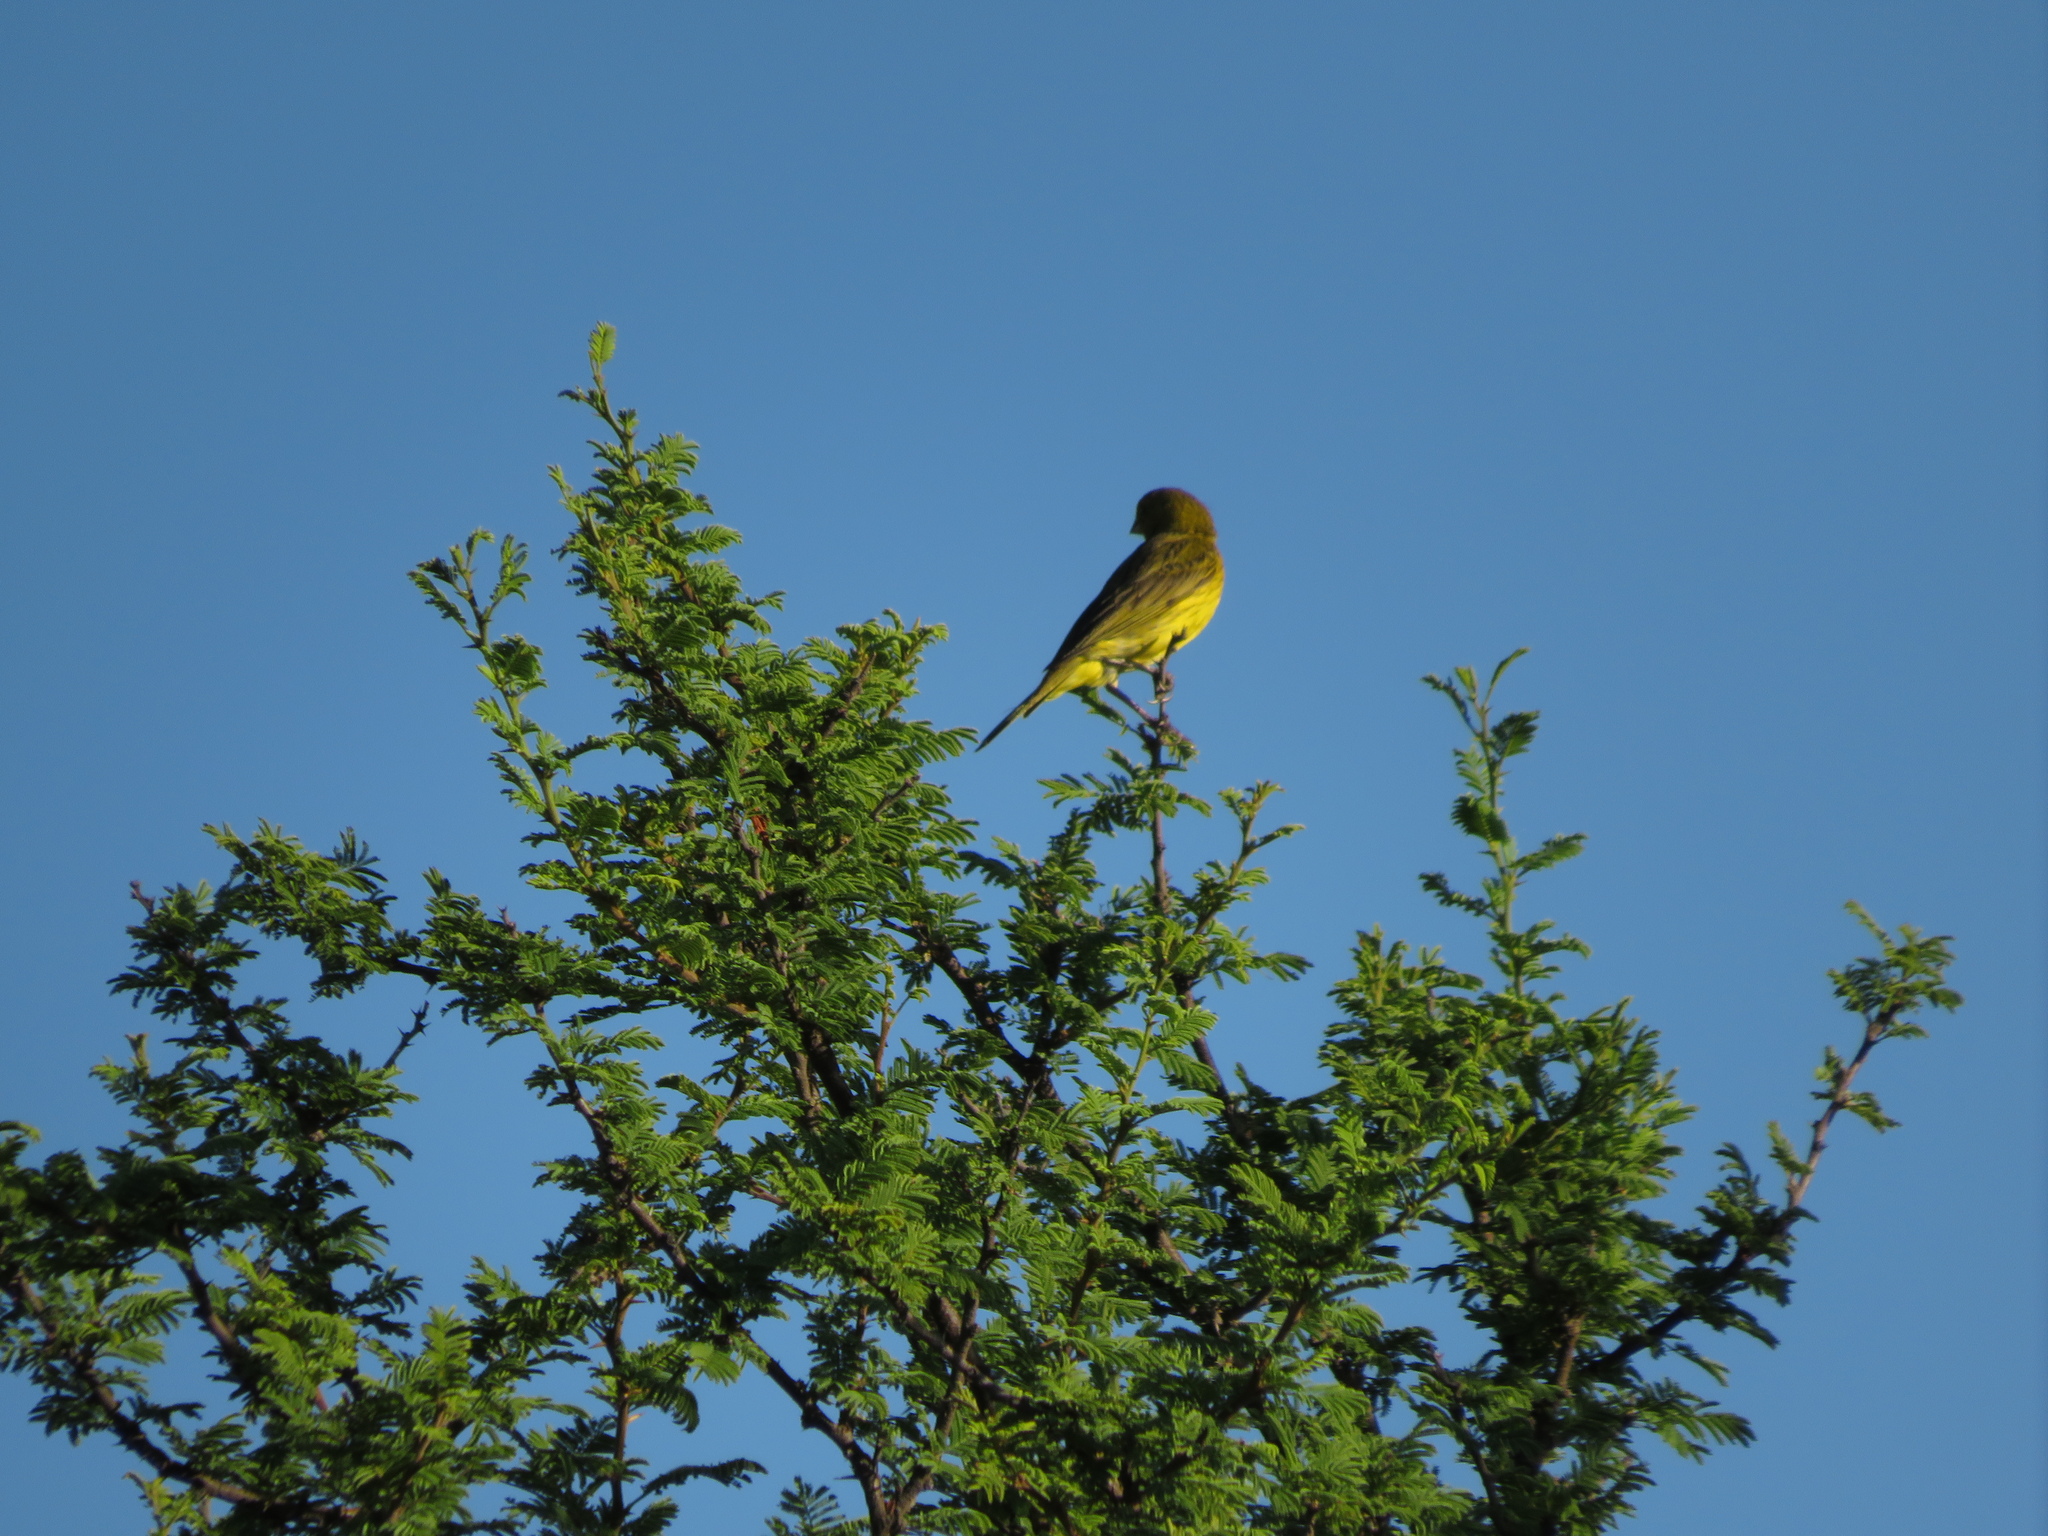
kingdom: Animalia
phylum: Chordata
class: Aves
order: Passeriformes
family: Thraupidae
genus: Sicalis
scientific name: Sicalis flaveola
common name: Saffron finch
